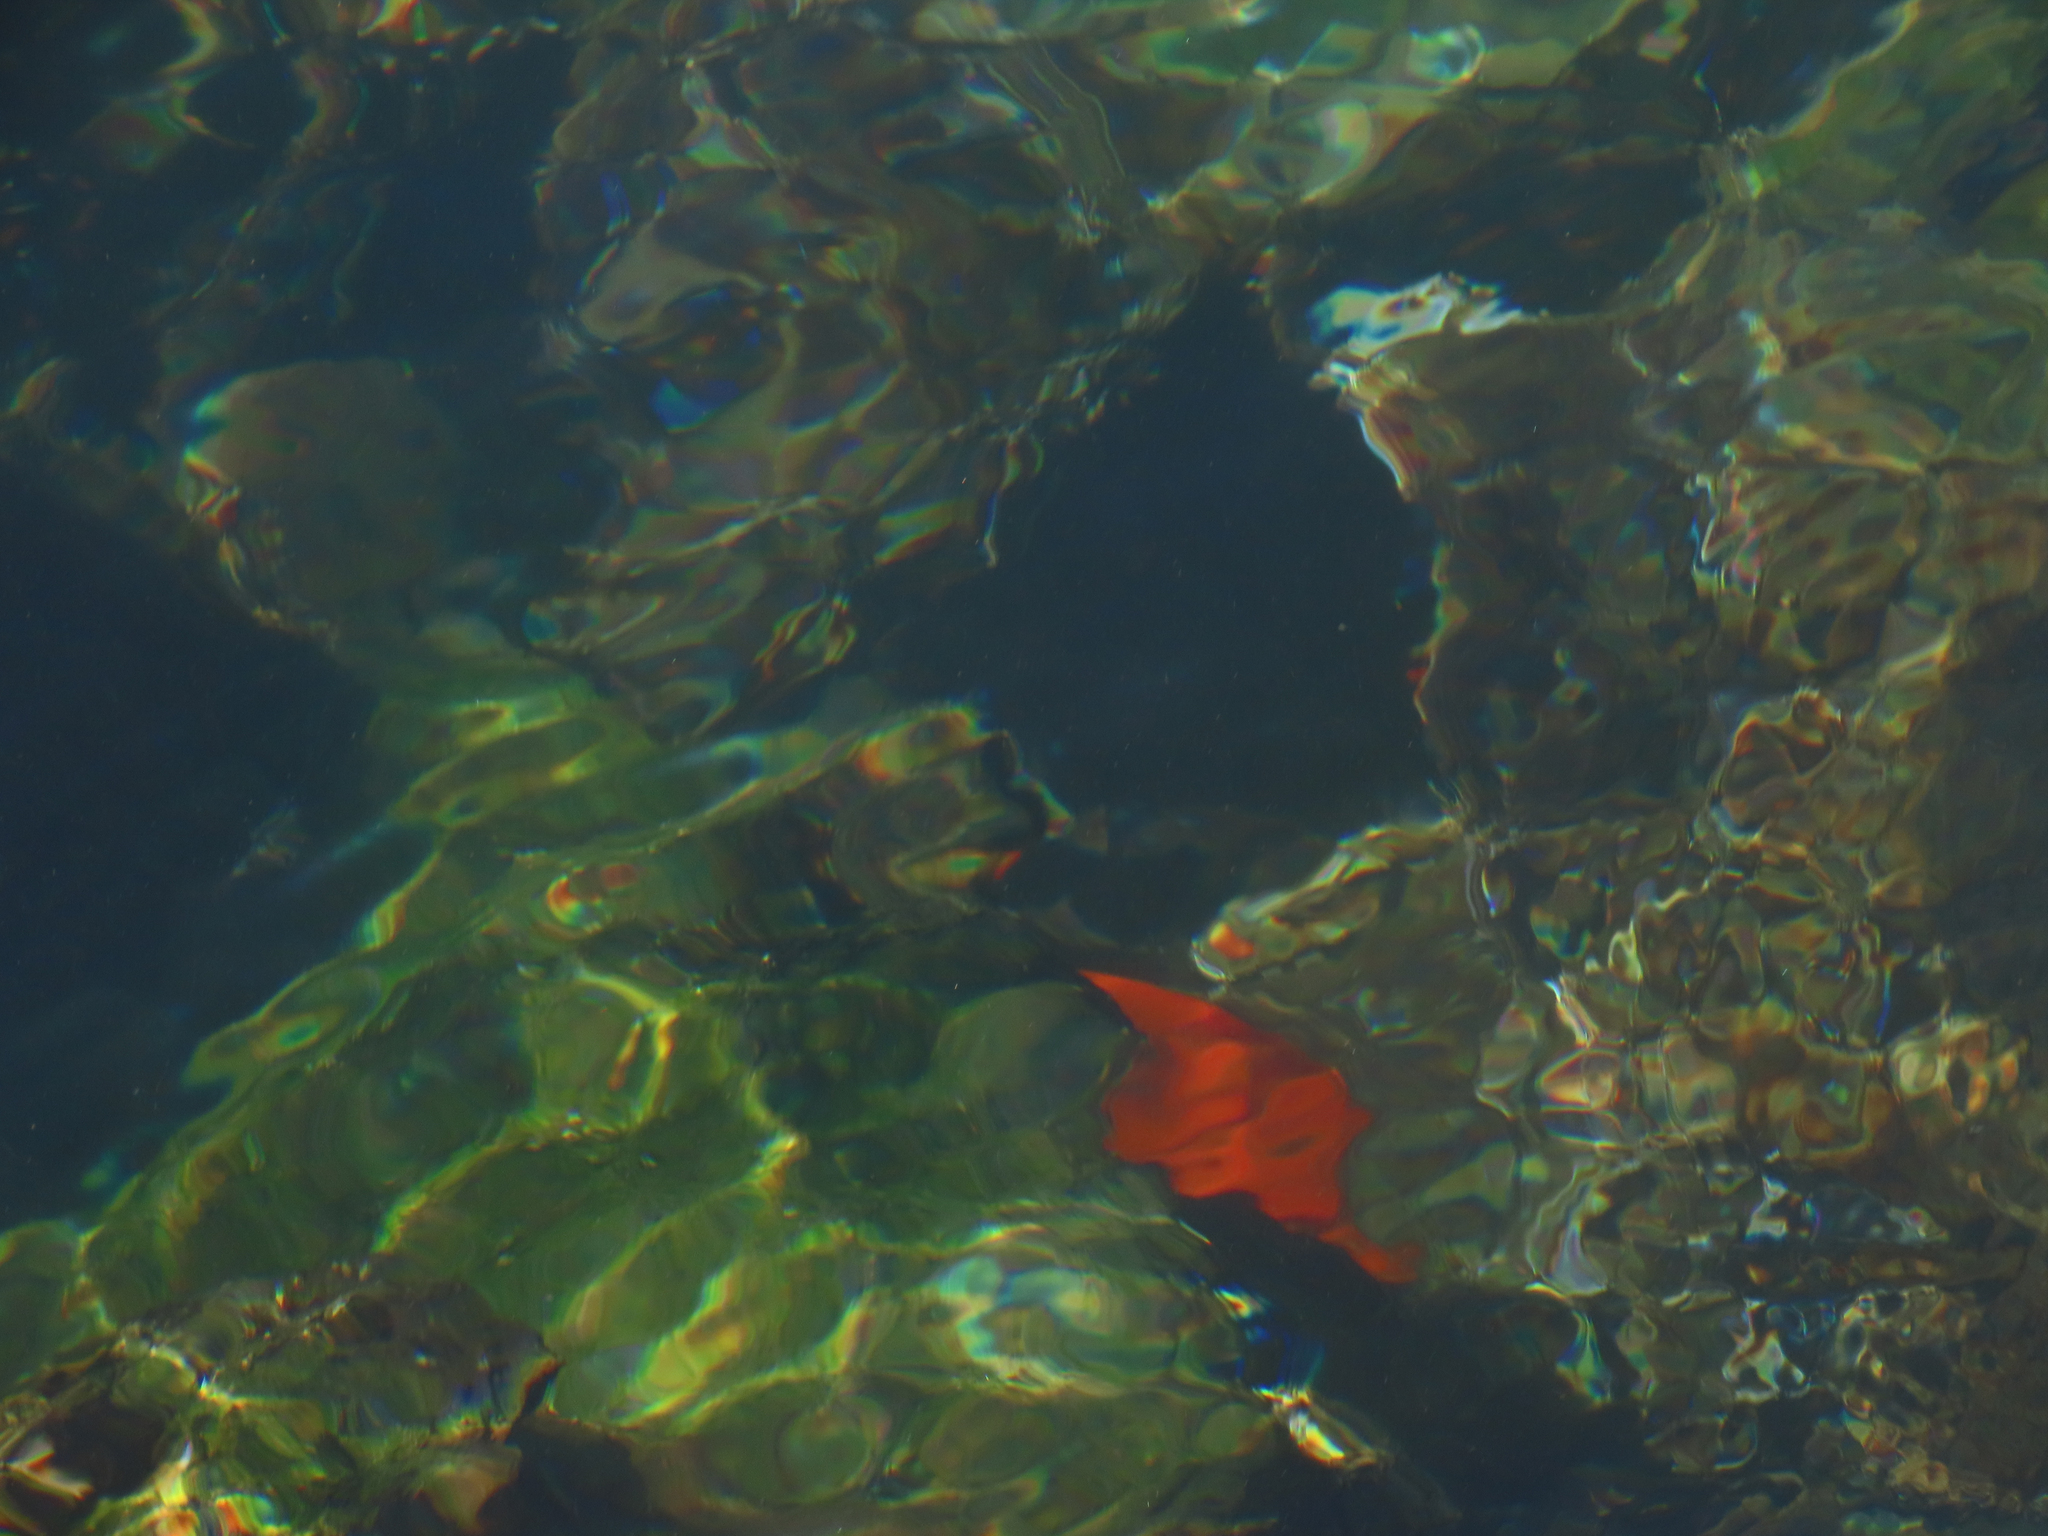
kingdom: Animalia
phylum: Chordata
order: Perciformes
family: Pomacentridae
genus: Hypsypops
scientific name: Hypsypops rubicundus
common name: Garibaldi
